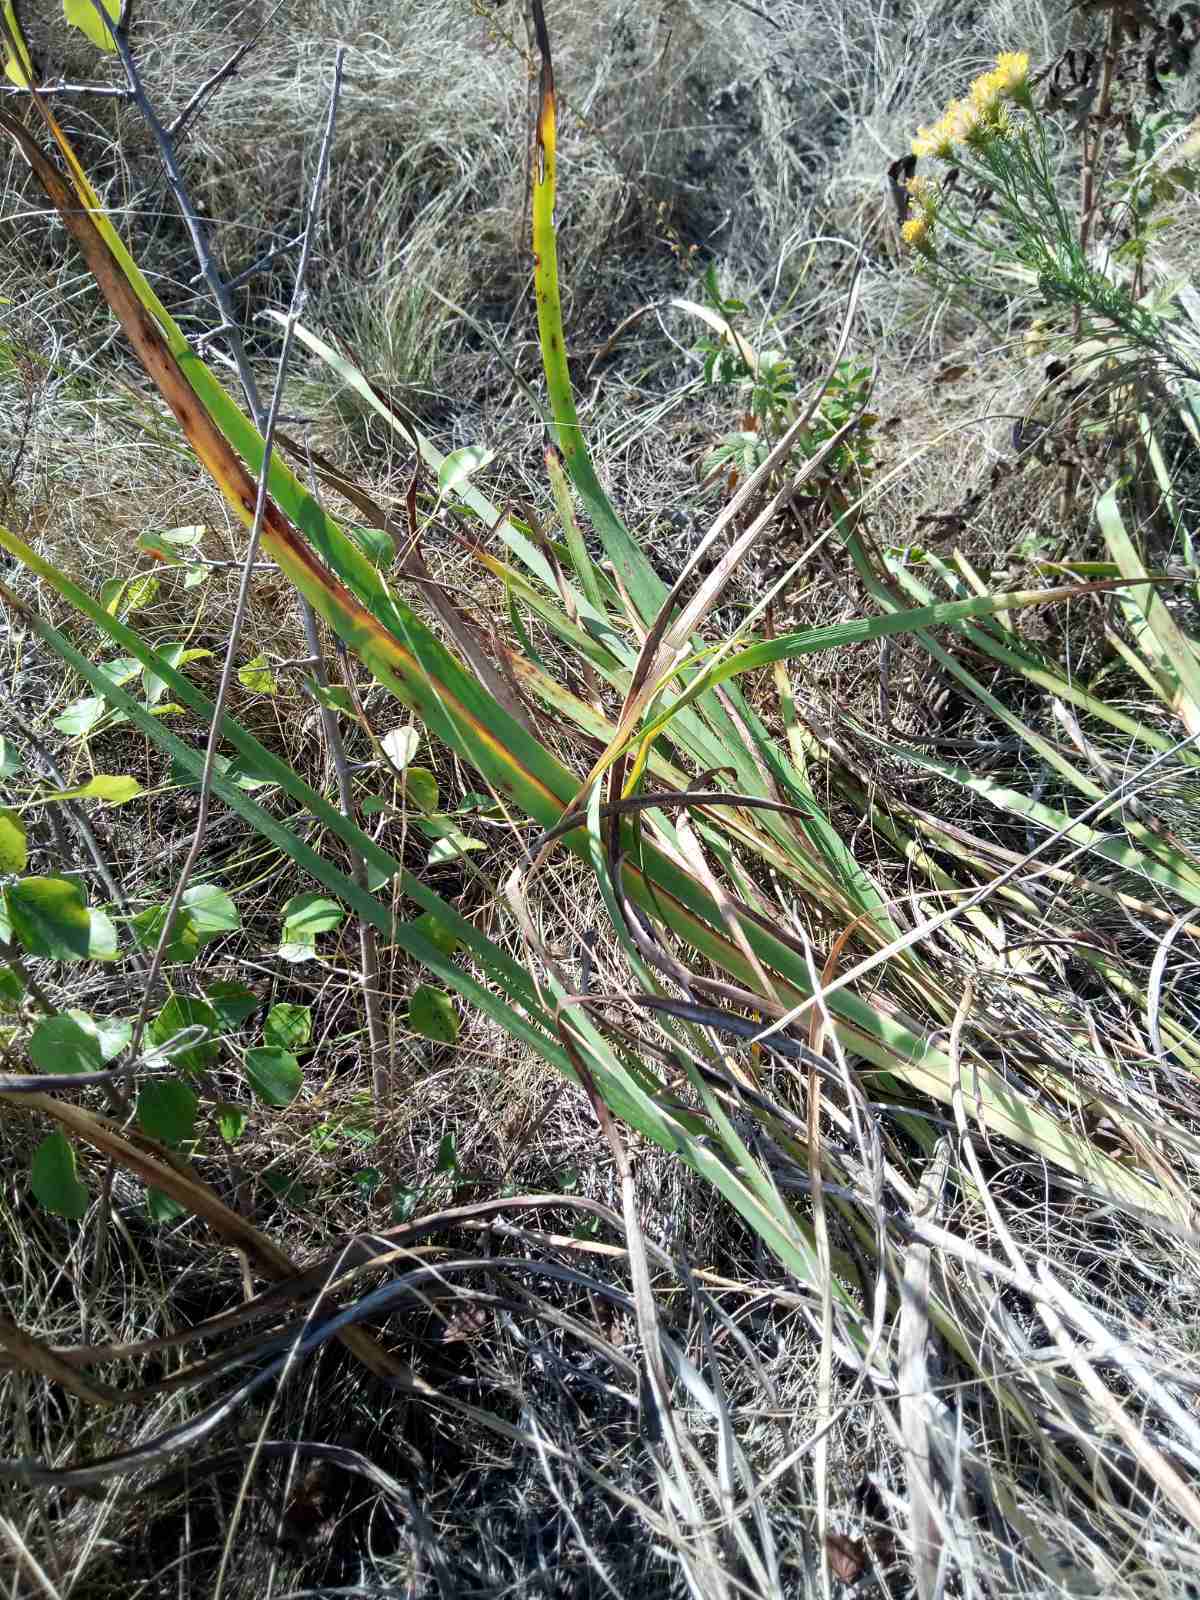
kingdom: Plantae
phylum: Tracheophyta
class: Liliopsida
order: Asparagales
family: Iridaceae
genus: Iris
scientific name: Iris halophila
